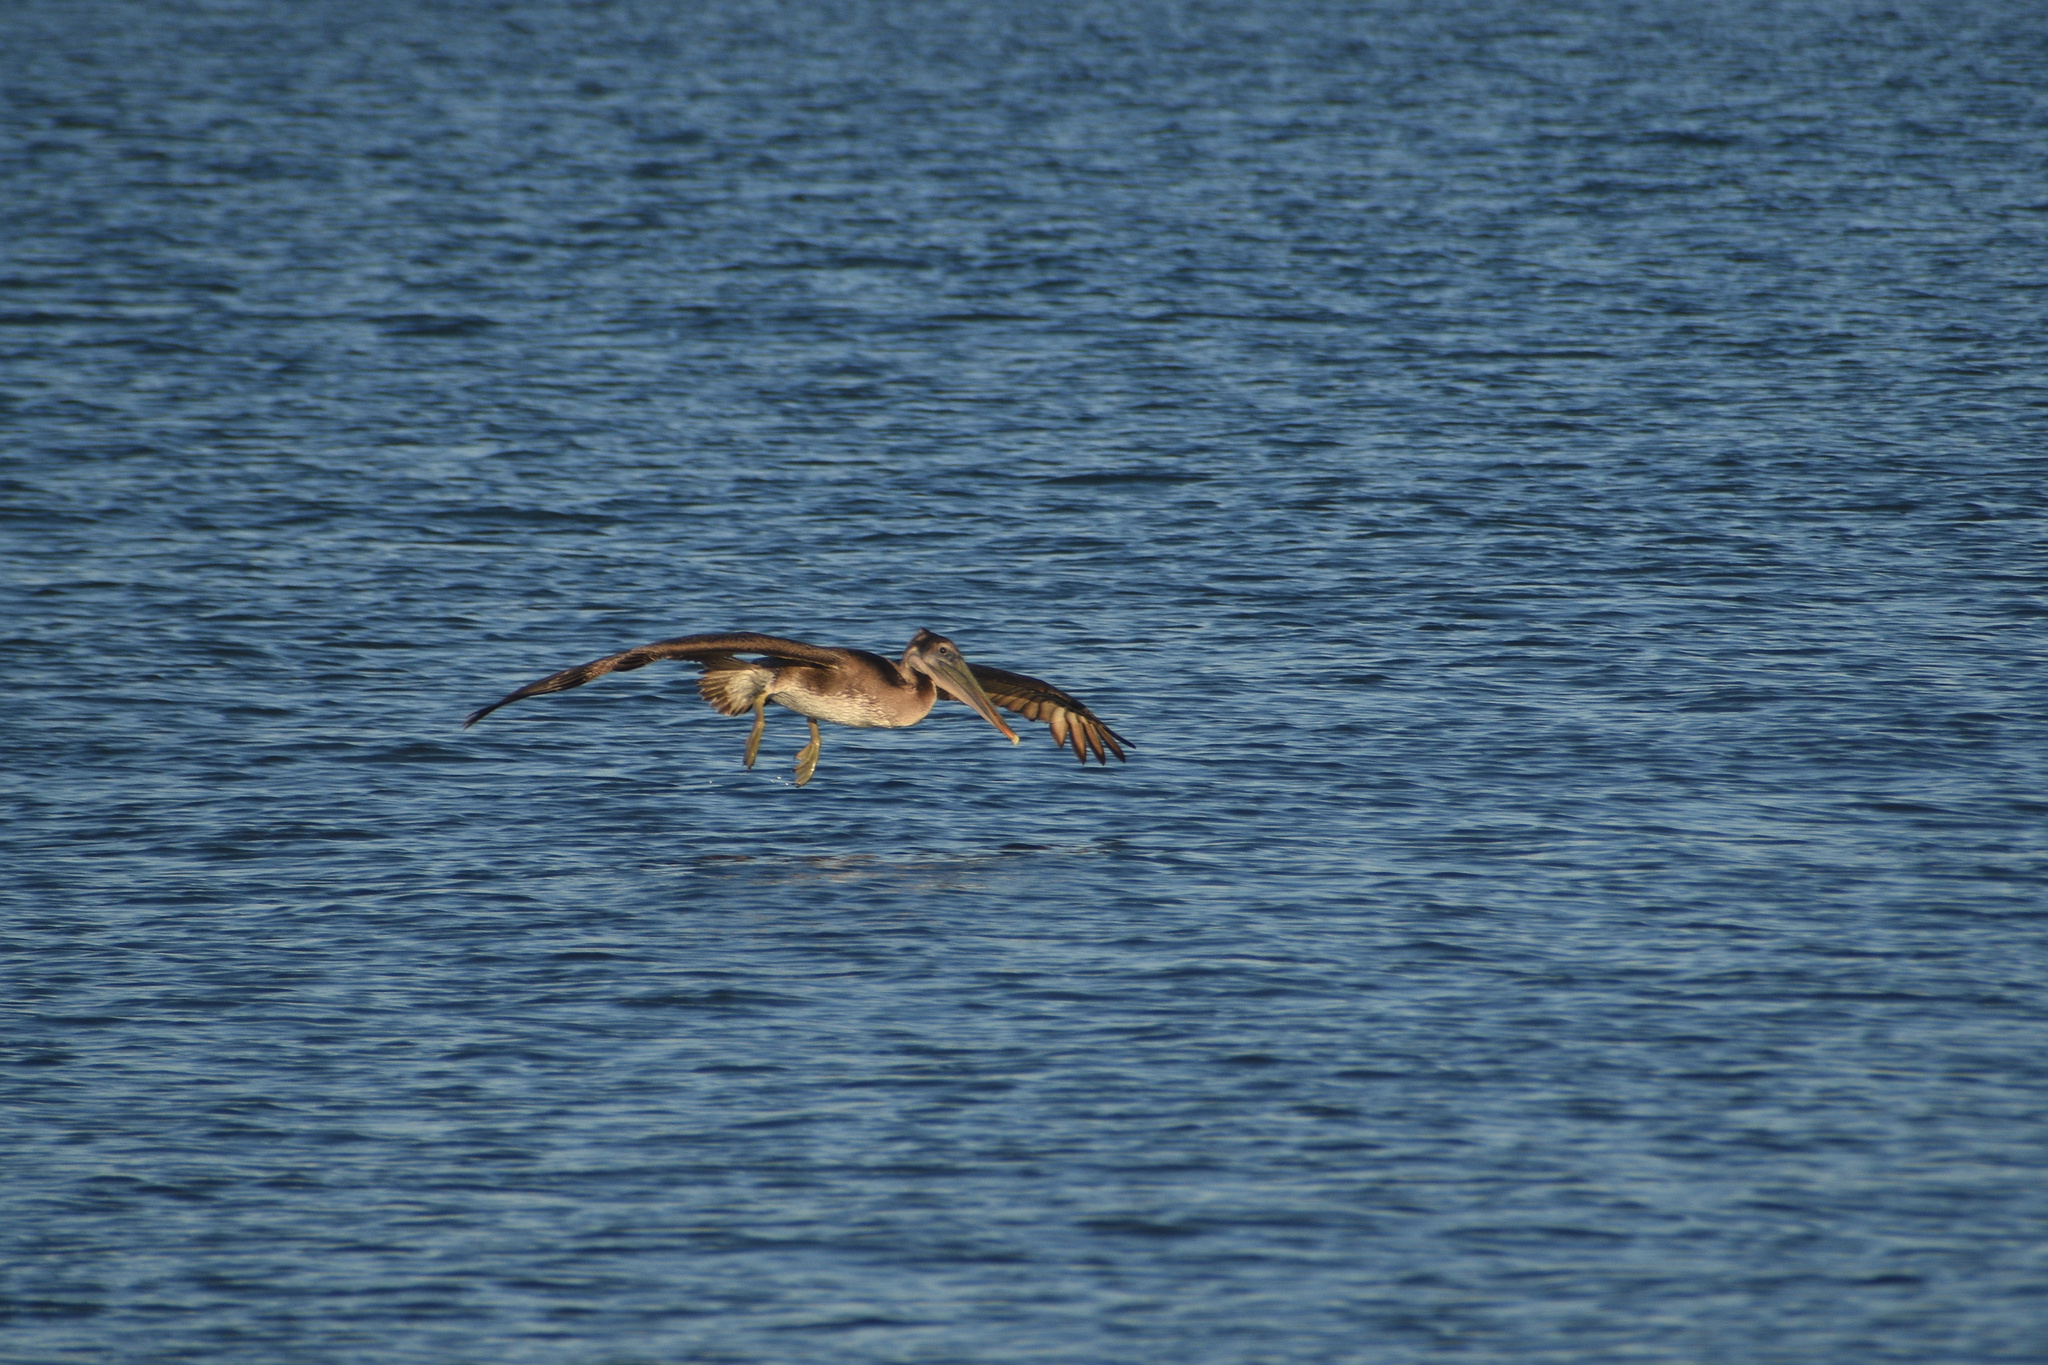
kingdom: Animalia
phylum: Chordata
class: Aves
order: Pelecaniformes
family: Pelecanidae
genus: Pelecanus
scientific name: Pelecanus occidentalis
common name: Brown pelican
